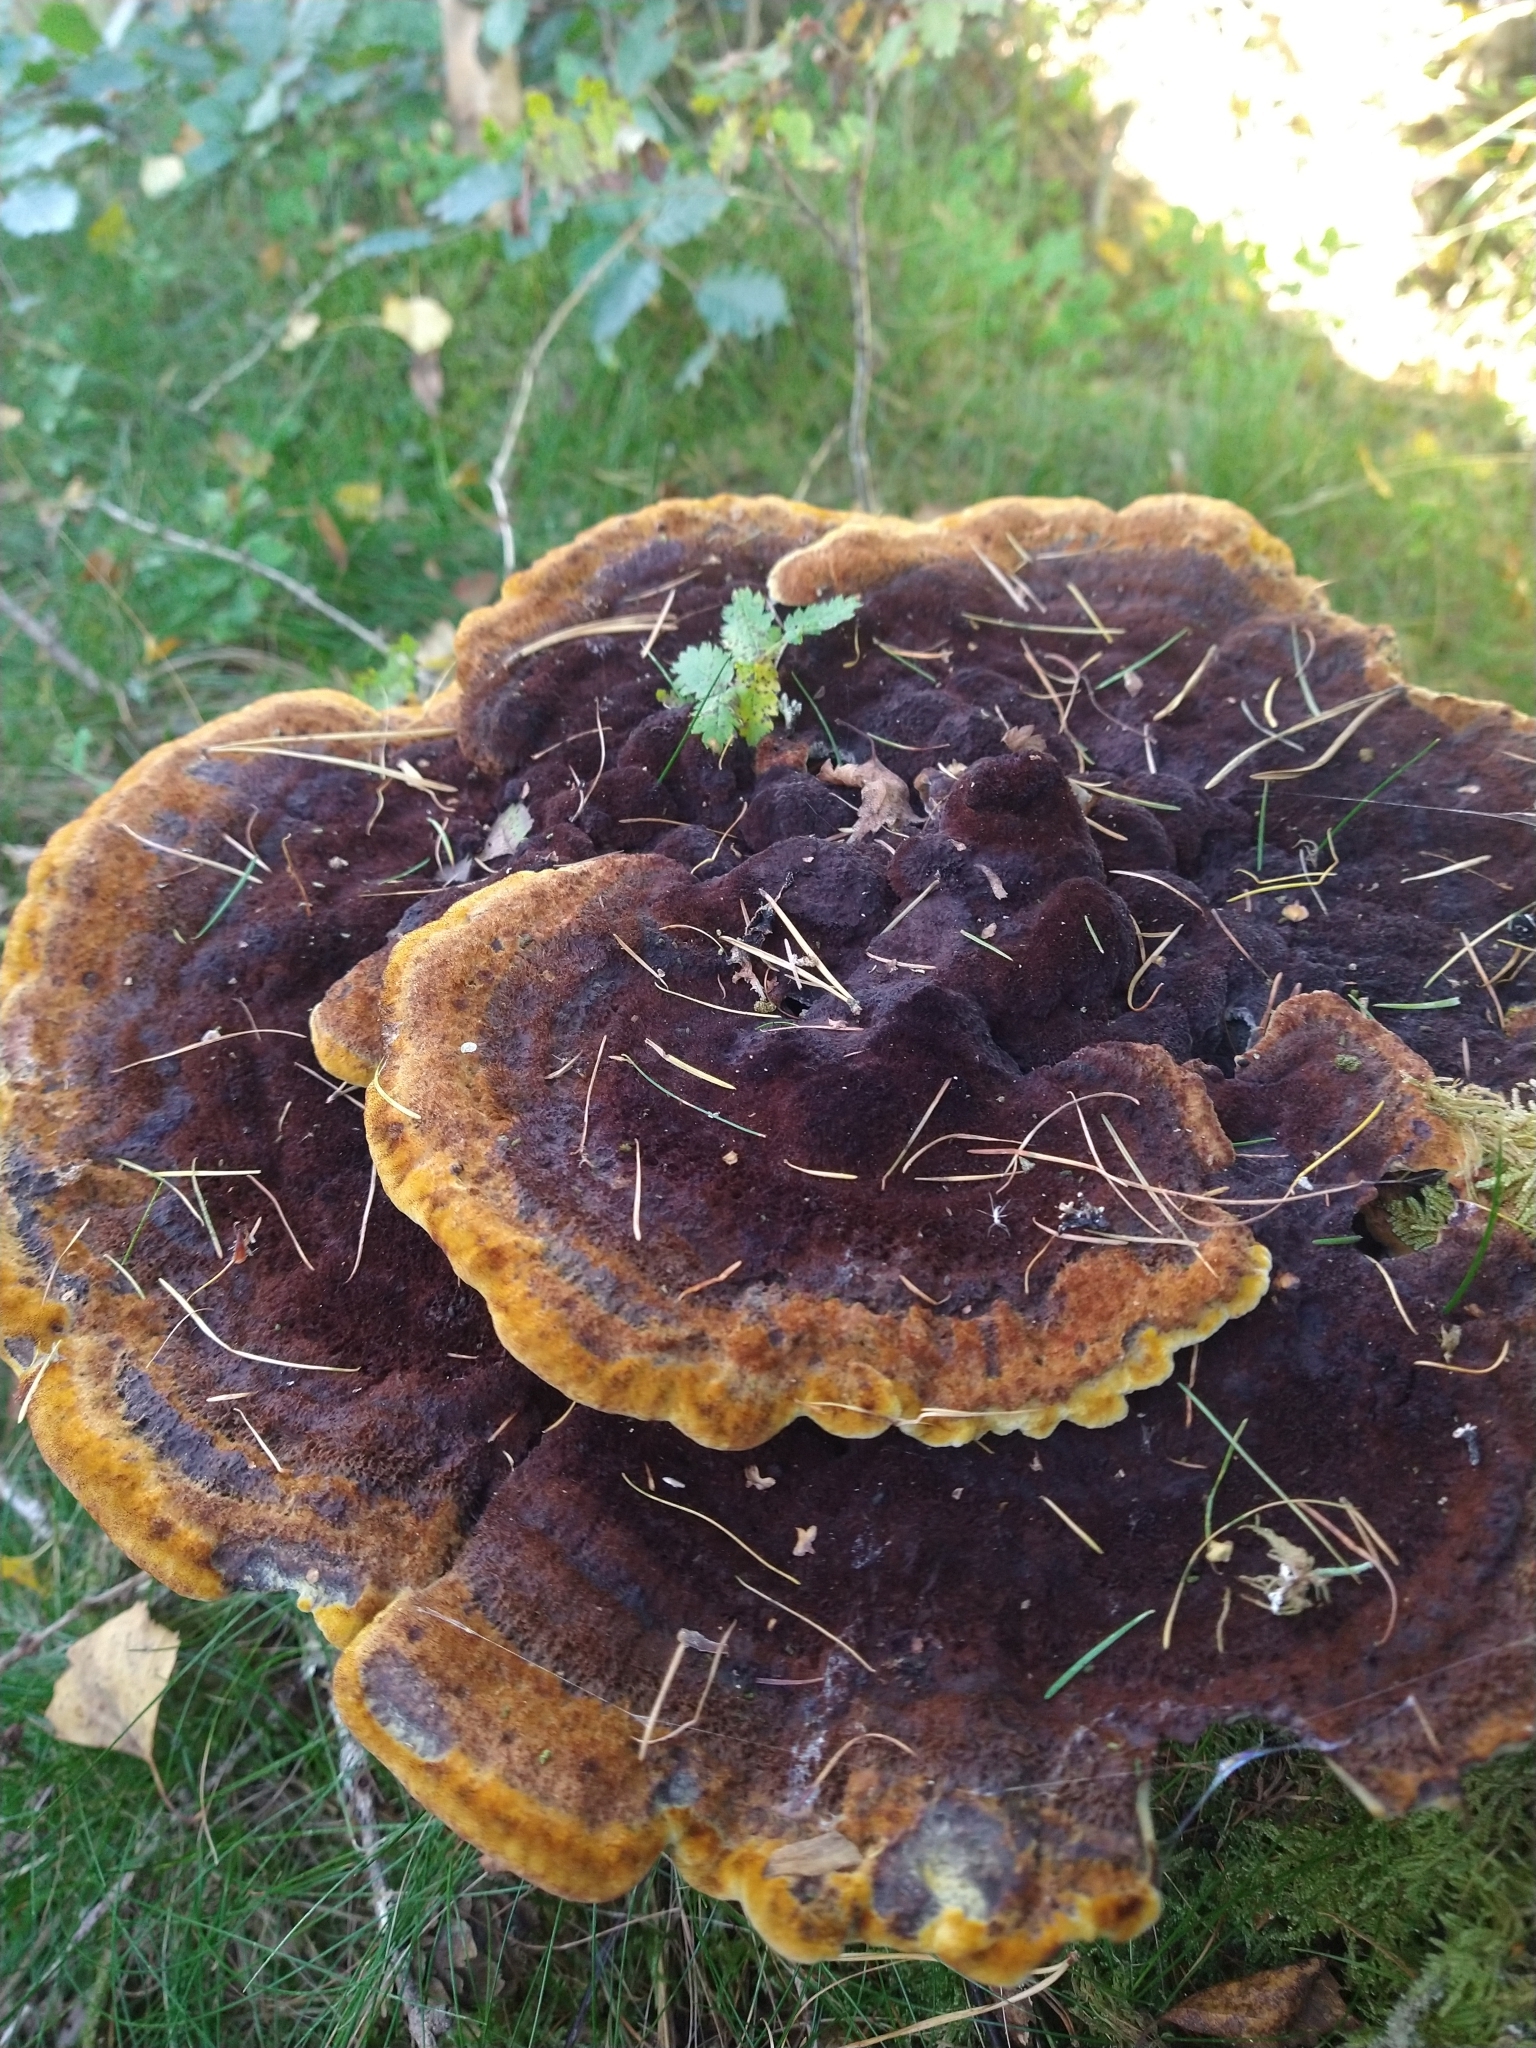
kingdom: Fungi
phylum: Basidiomycota
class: Agaricomycetes
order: Polyporales
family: Laetiporaceae
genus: Phaeolus
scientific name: Phaeolus schweinitzii
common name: Dyer's mazegill
